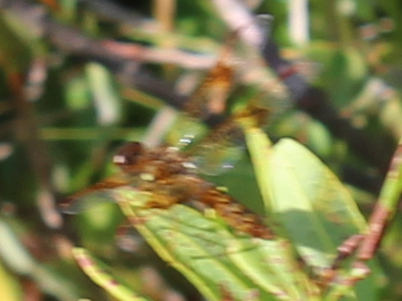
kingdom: Animalia
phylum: Arthropoda
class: Insecta
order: Odonata
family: Libellulidae
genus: Perithemis
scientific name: Perithemis tenera
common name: Eastern amberwing
